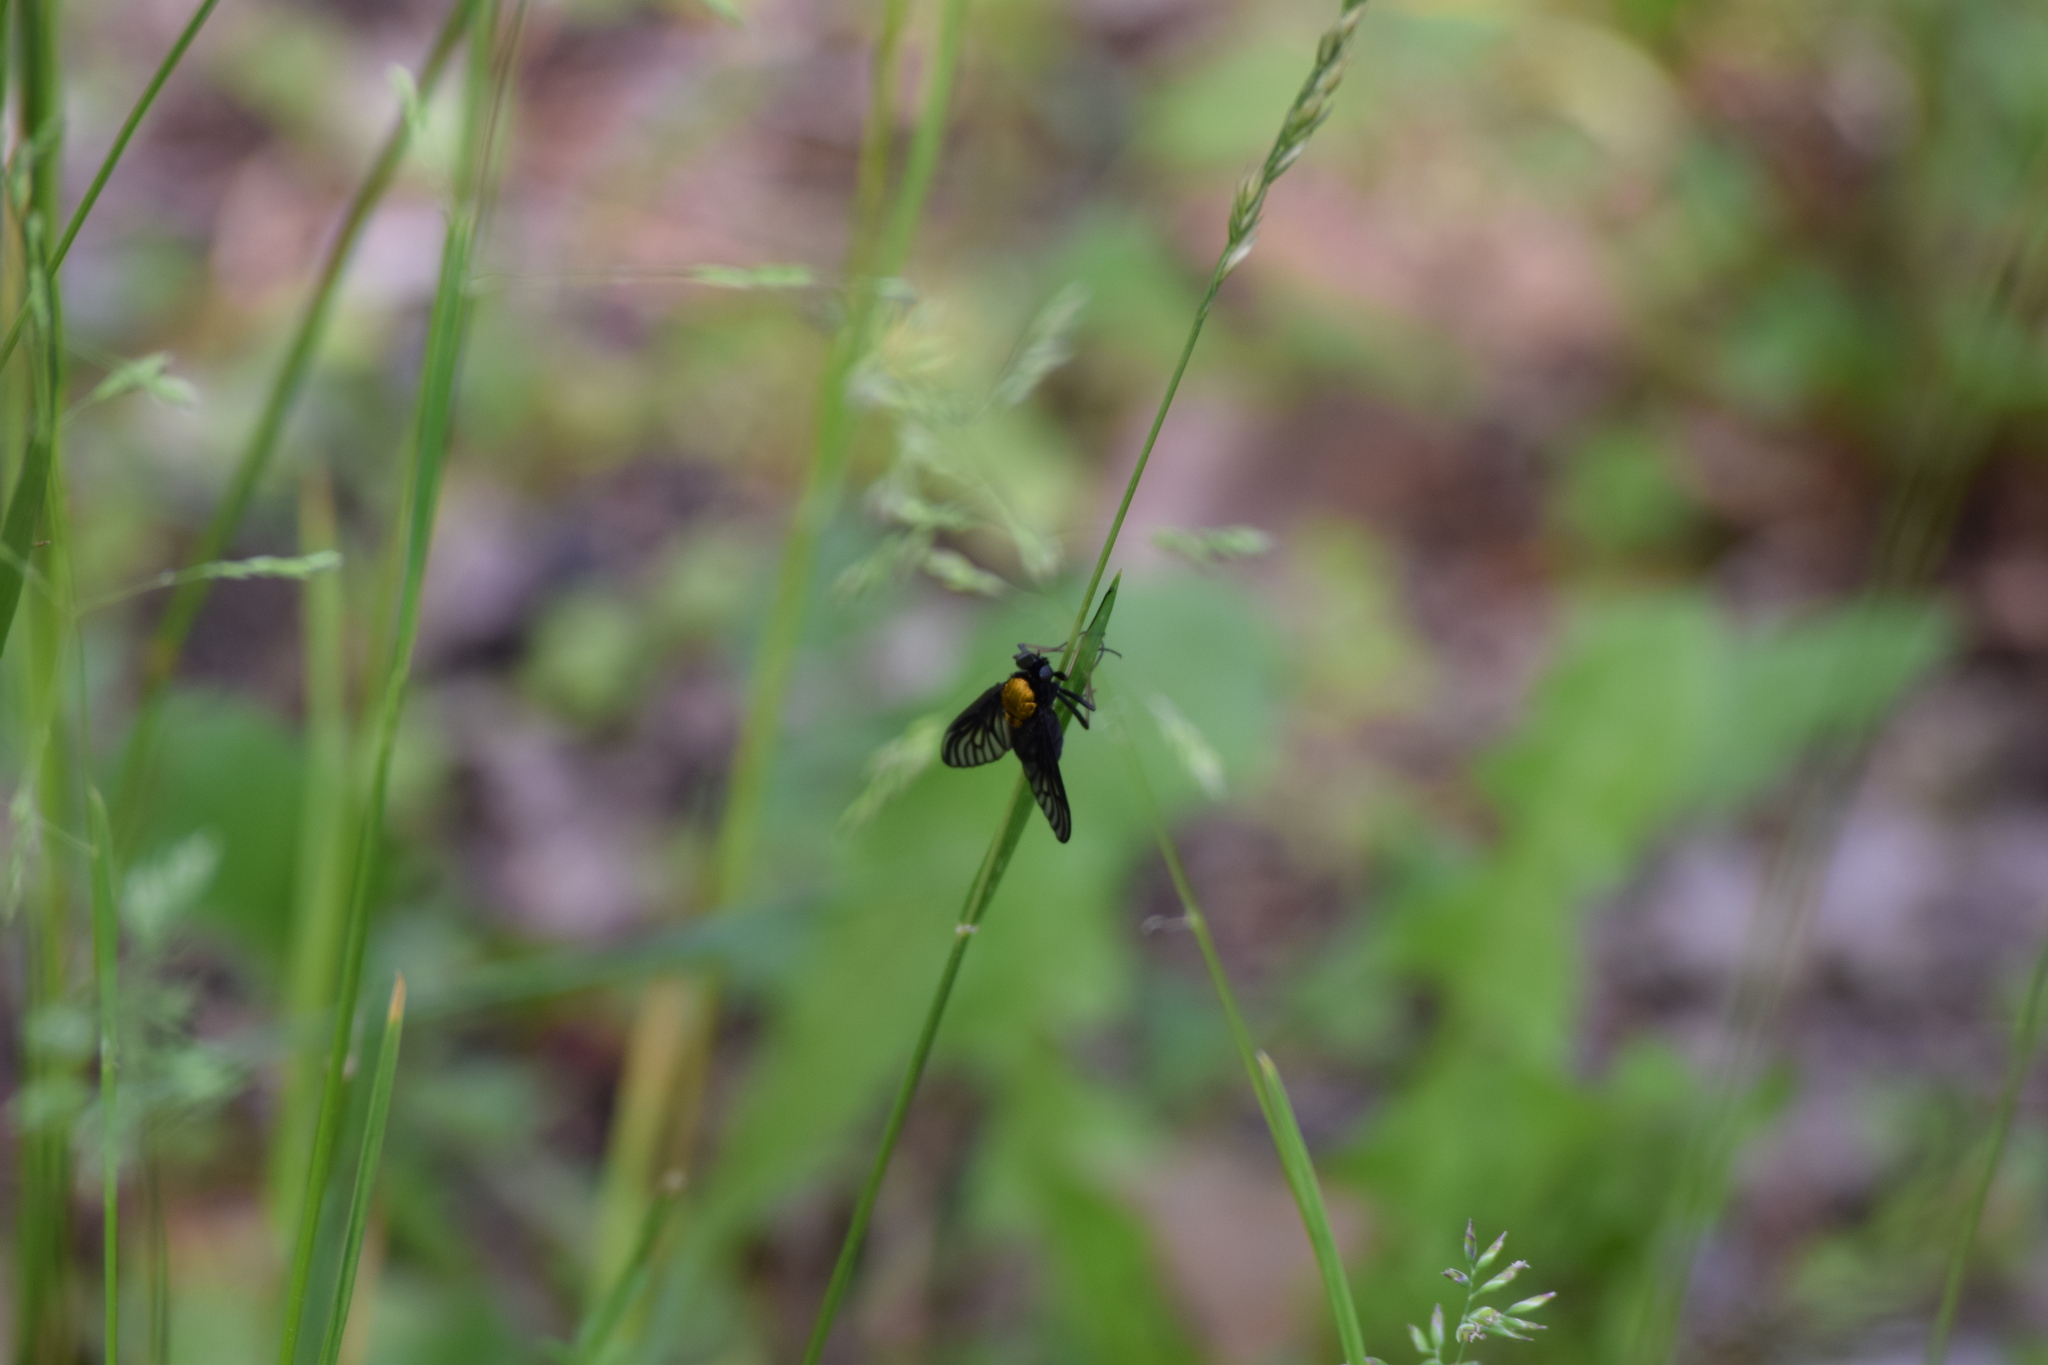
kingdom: Animalia
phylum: Arthropoda
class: Insecta
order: Diptera
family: Rhagionidae
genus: Chrysopilus
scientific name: Chrysopilus thoracicus
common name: Golden-backed snipe fly
